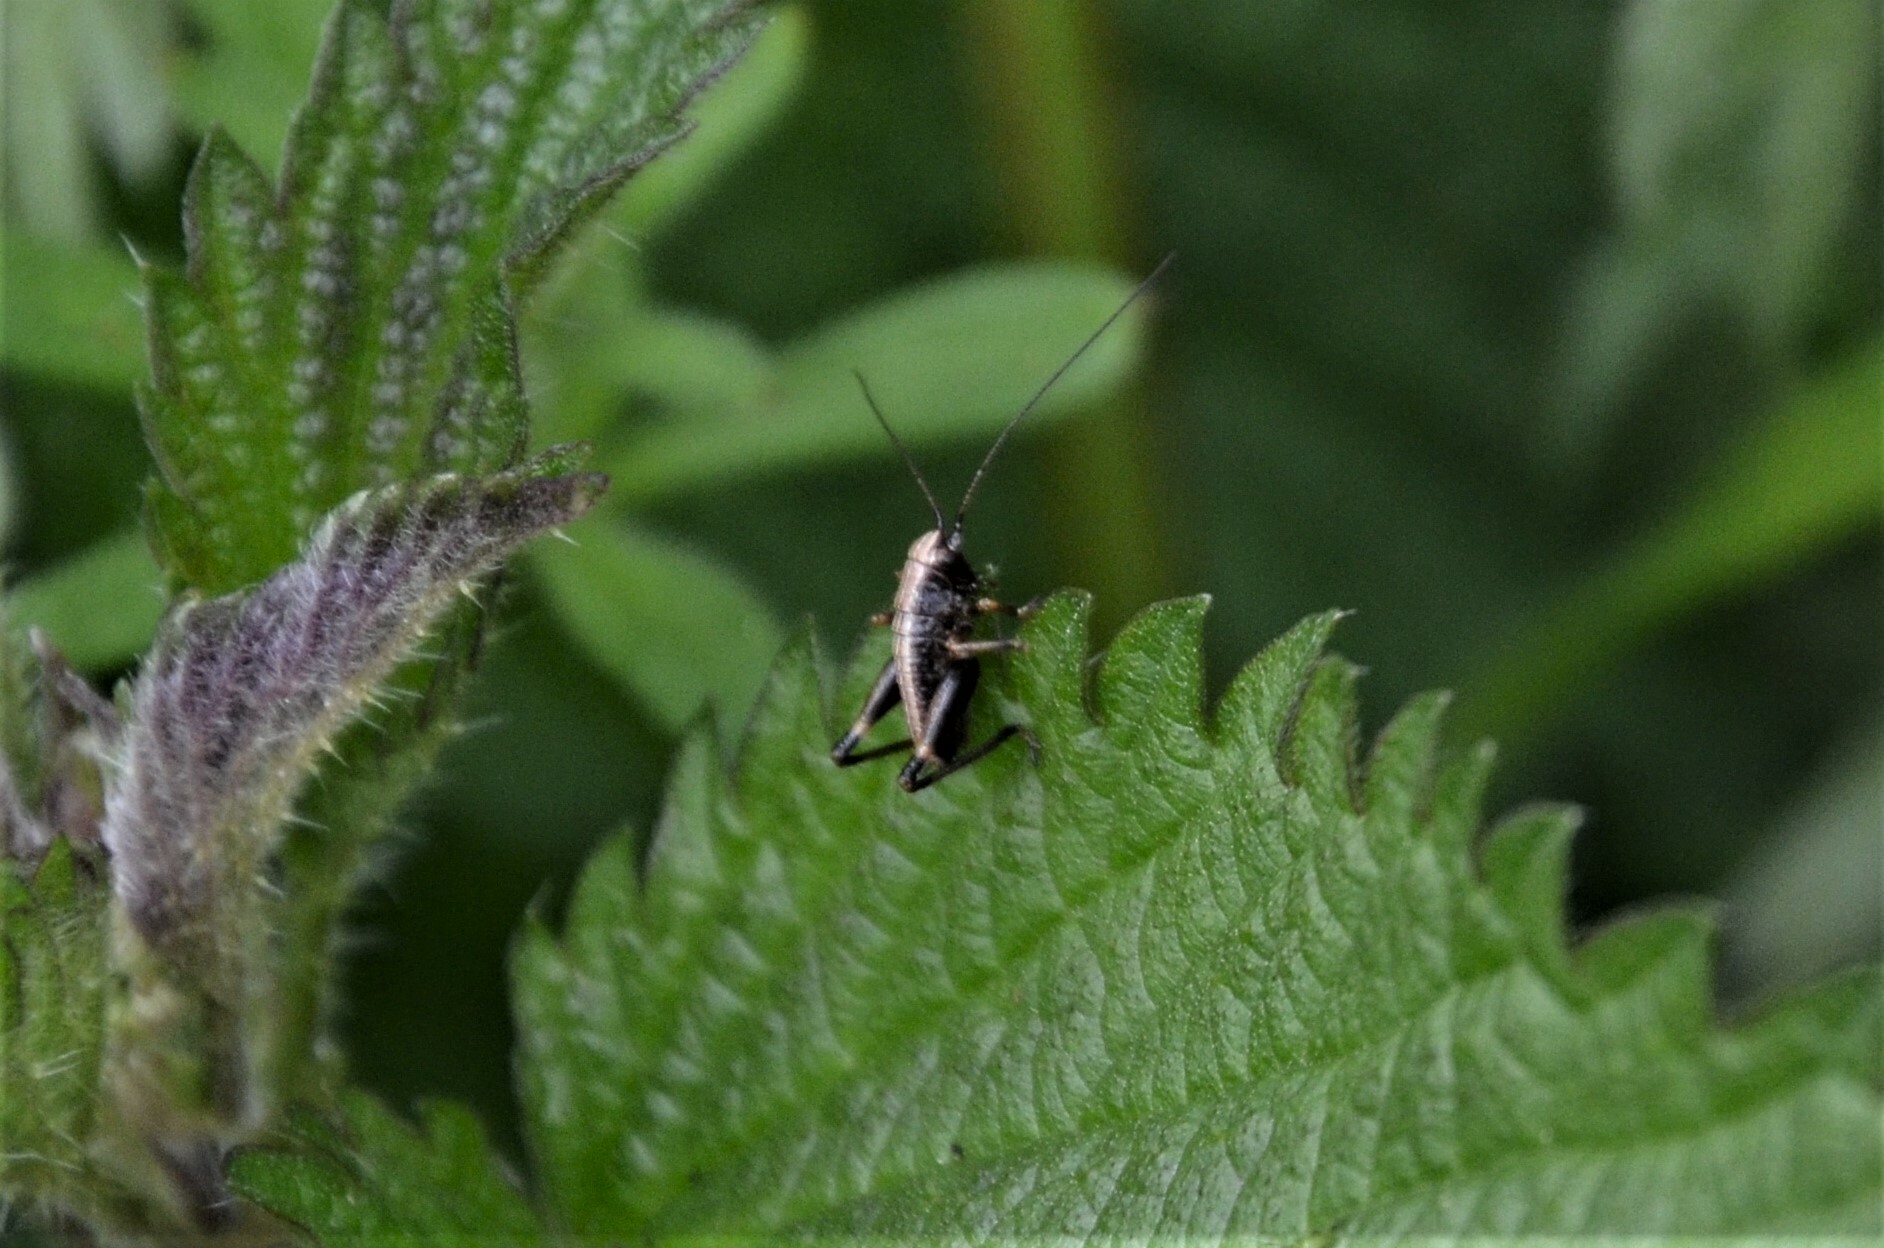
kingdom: Animalia
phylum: Arthropoda
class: Insecta
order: Orthoptera
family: Tettigoniidae
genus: Pholidoptera
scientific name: Pholidoptera griseoaptera
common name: Dark bush-cricket
